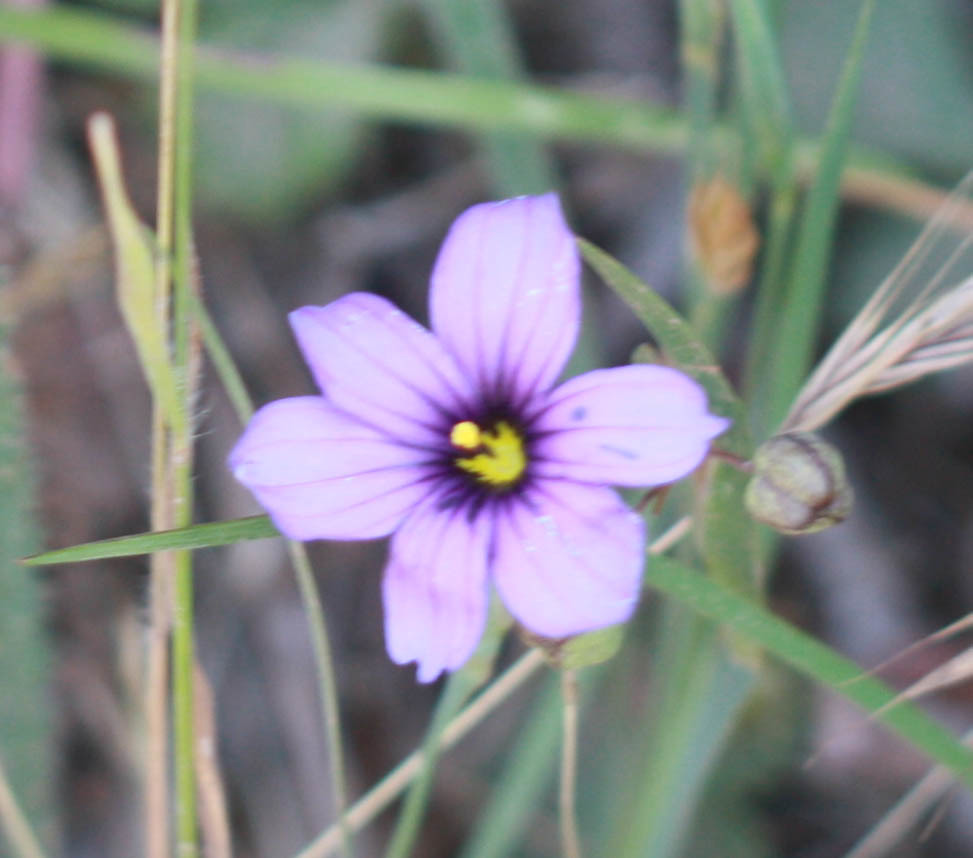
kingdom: Plantae
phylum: Tracheophyta
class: Liliopsida
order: Asparagales
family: Iridaceae
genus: Sisyrinchium
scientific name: Sisyrinchium bellum
